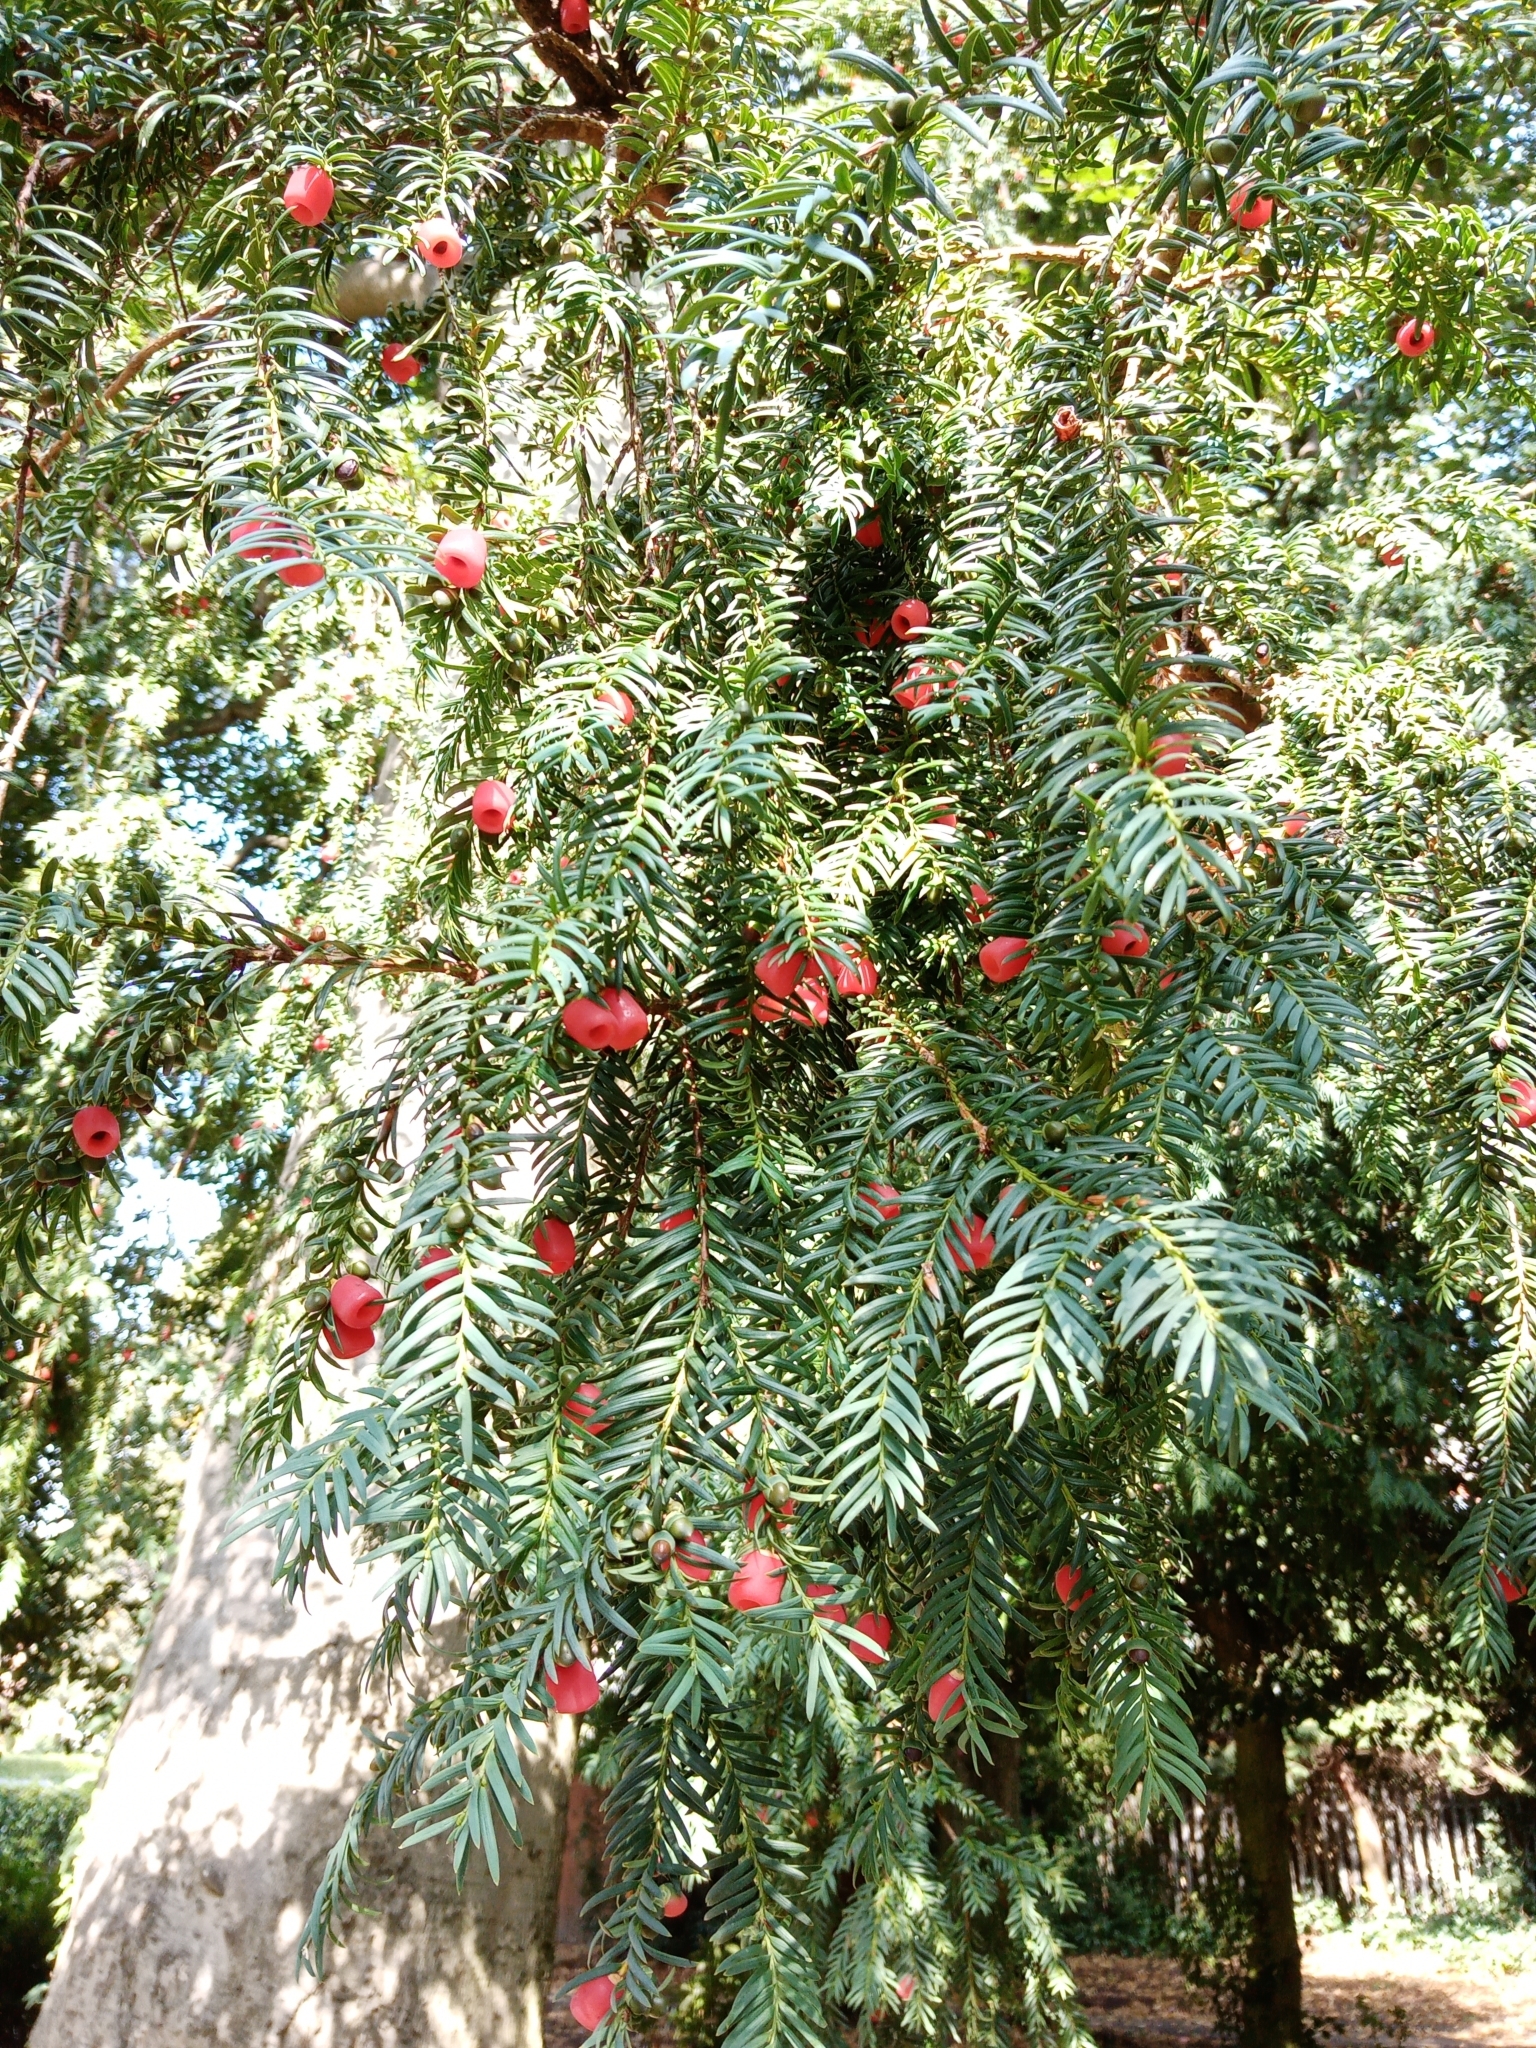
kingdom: Plantae
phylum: Tracheophyta
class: Pinopsida
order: Pinales
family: Taxaceae
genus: Taxus
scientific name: Taxus baccata
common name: Yew
